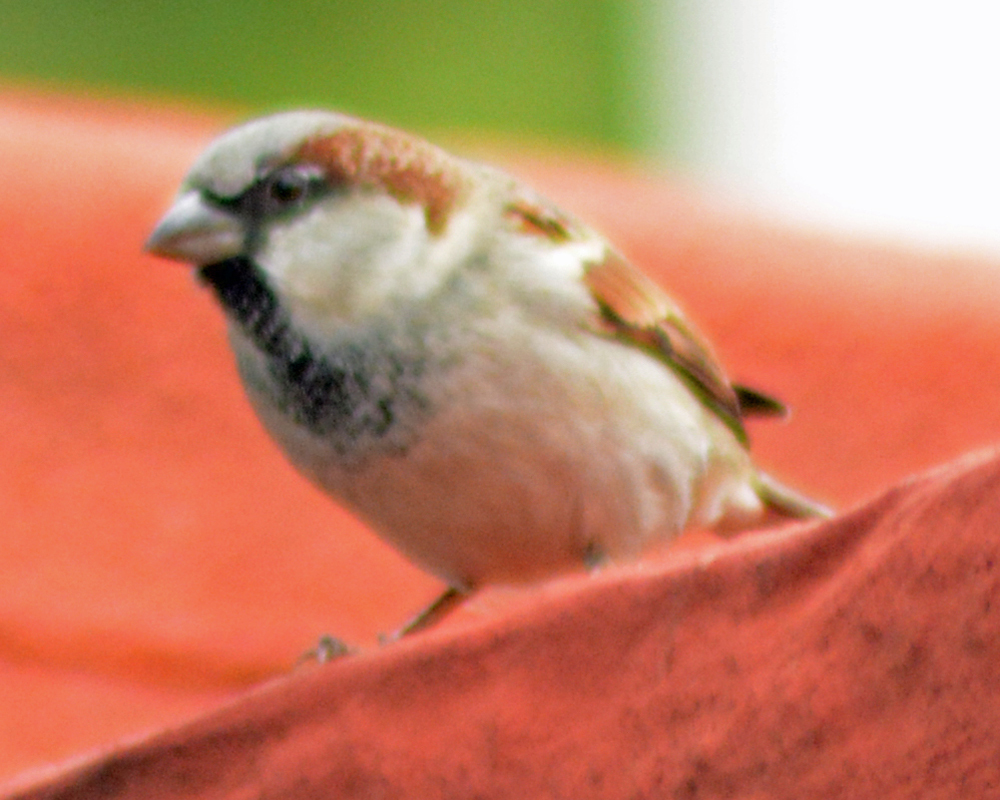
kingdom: Animalia
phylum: Chordata
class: Aves
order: Passeriformes
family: Passeridae
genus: Passer
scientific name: Passer domesticus
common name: House sparrow
